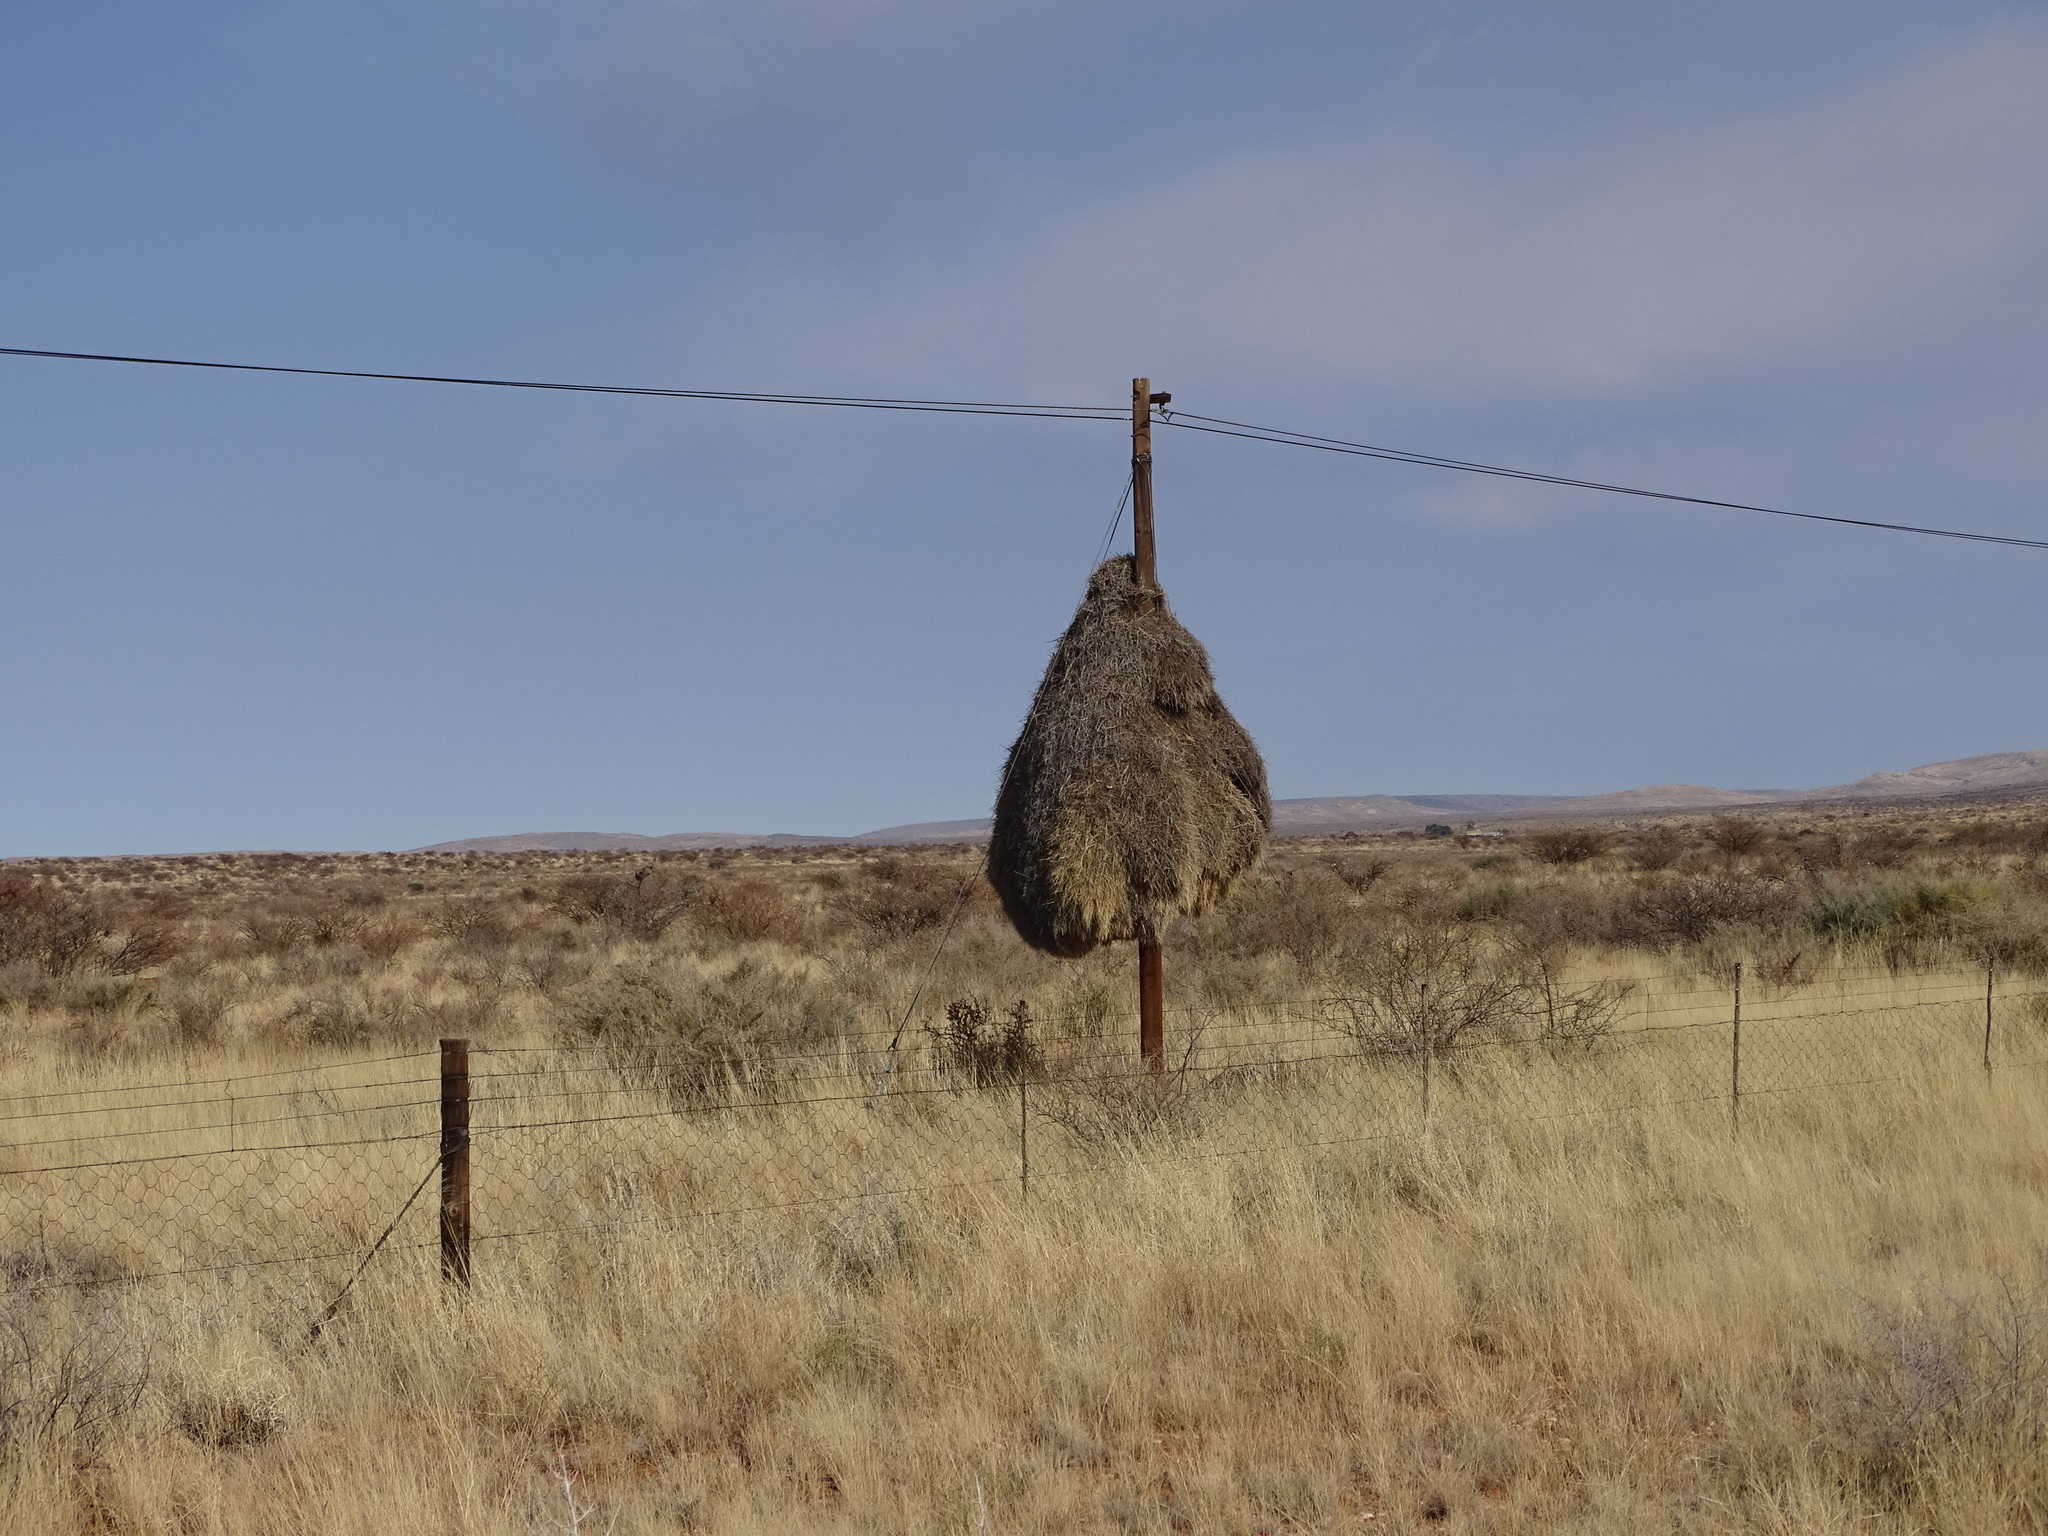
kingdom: Animalia
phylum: Chordata
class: Aves
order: Passeriformes
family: Passeridae
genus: Philetairus
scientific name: Philetairus socius
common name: Sociable weaver
